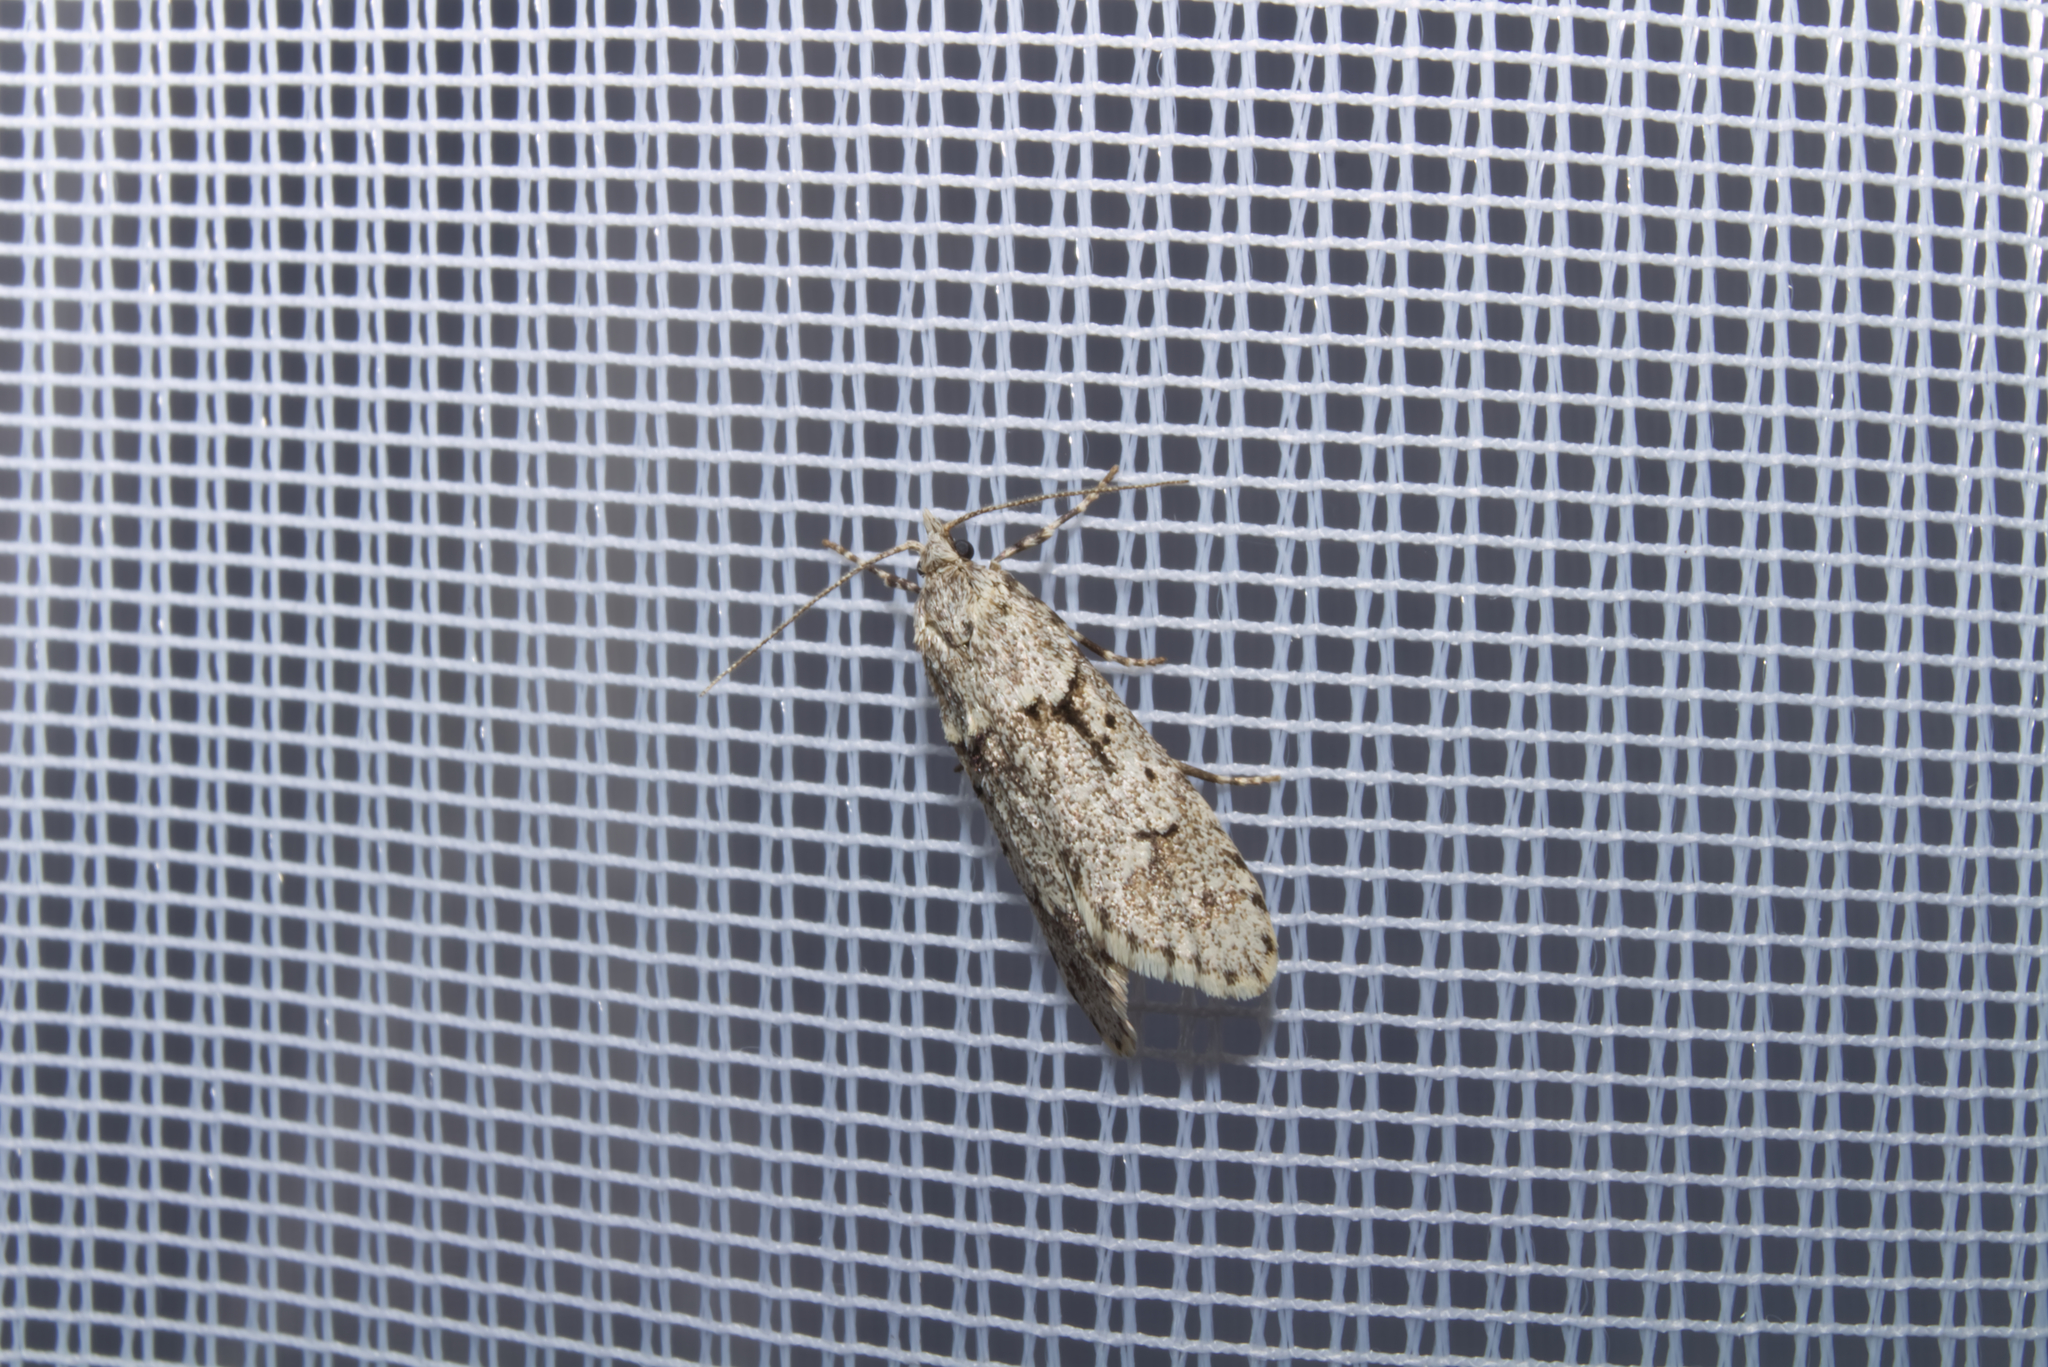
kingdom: Animalia
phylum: Arthropoda
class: Insecta
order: Lepidoptera
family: Lypusidae
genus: Diurnea
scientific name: Diurnea fagella
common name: March tubic
